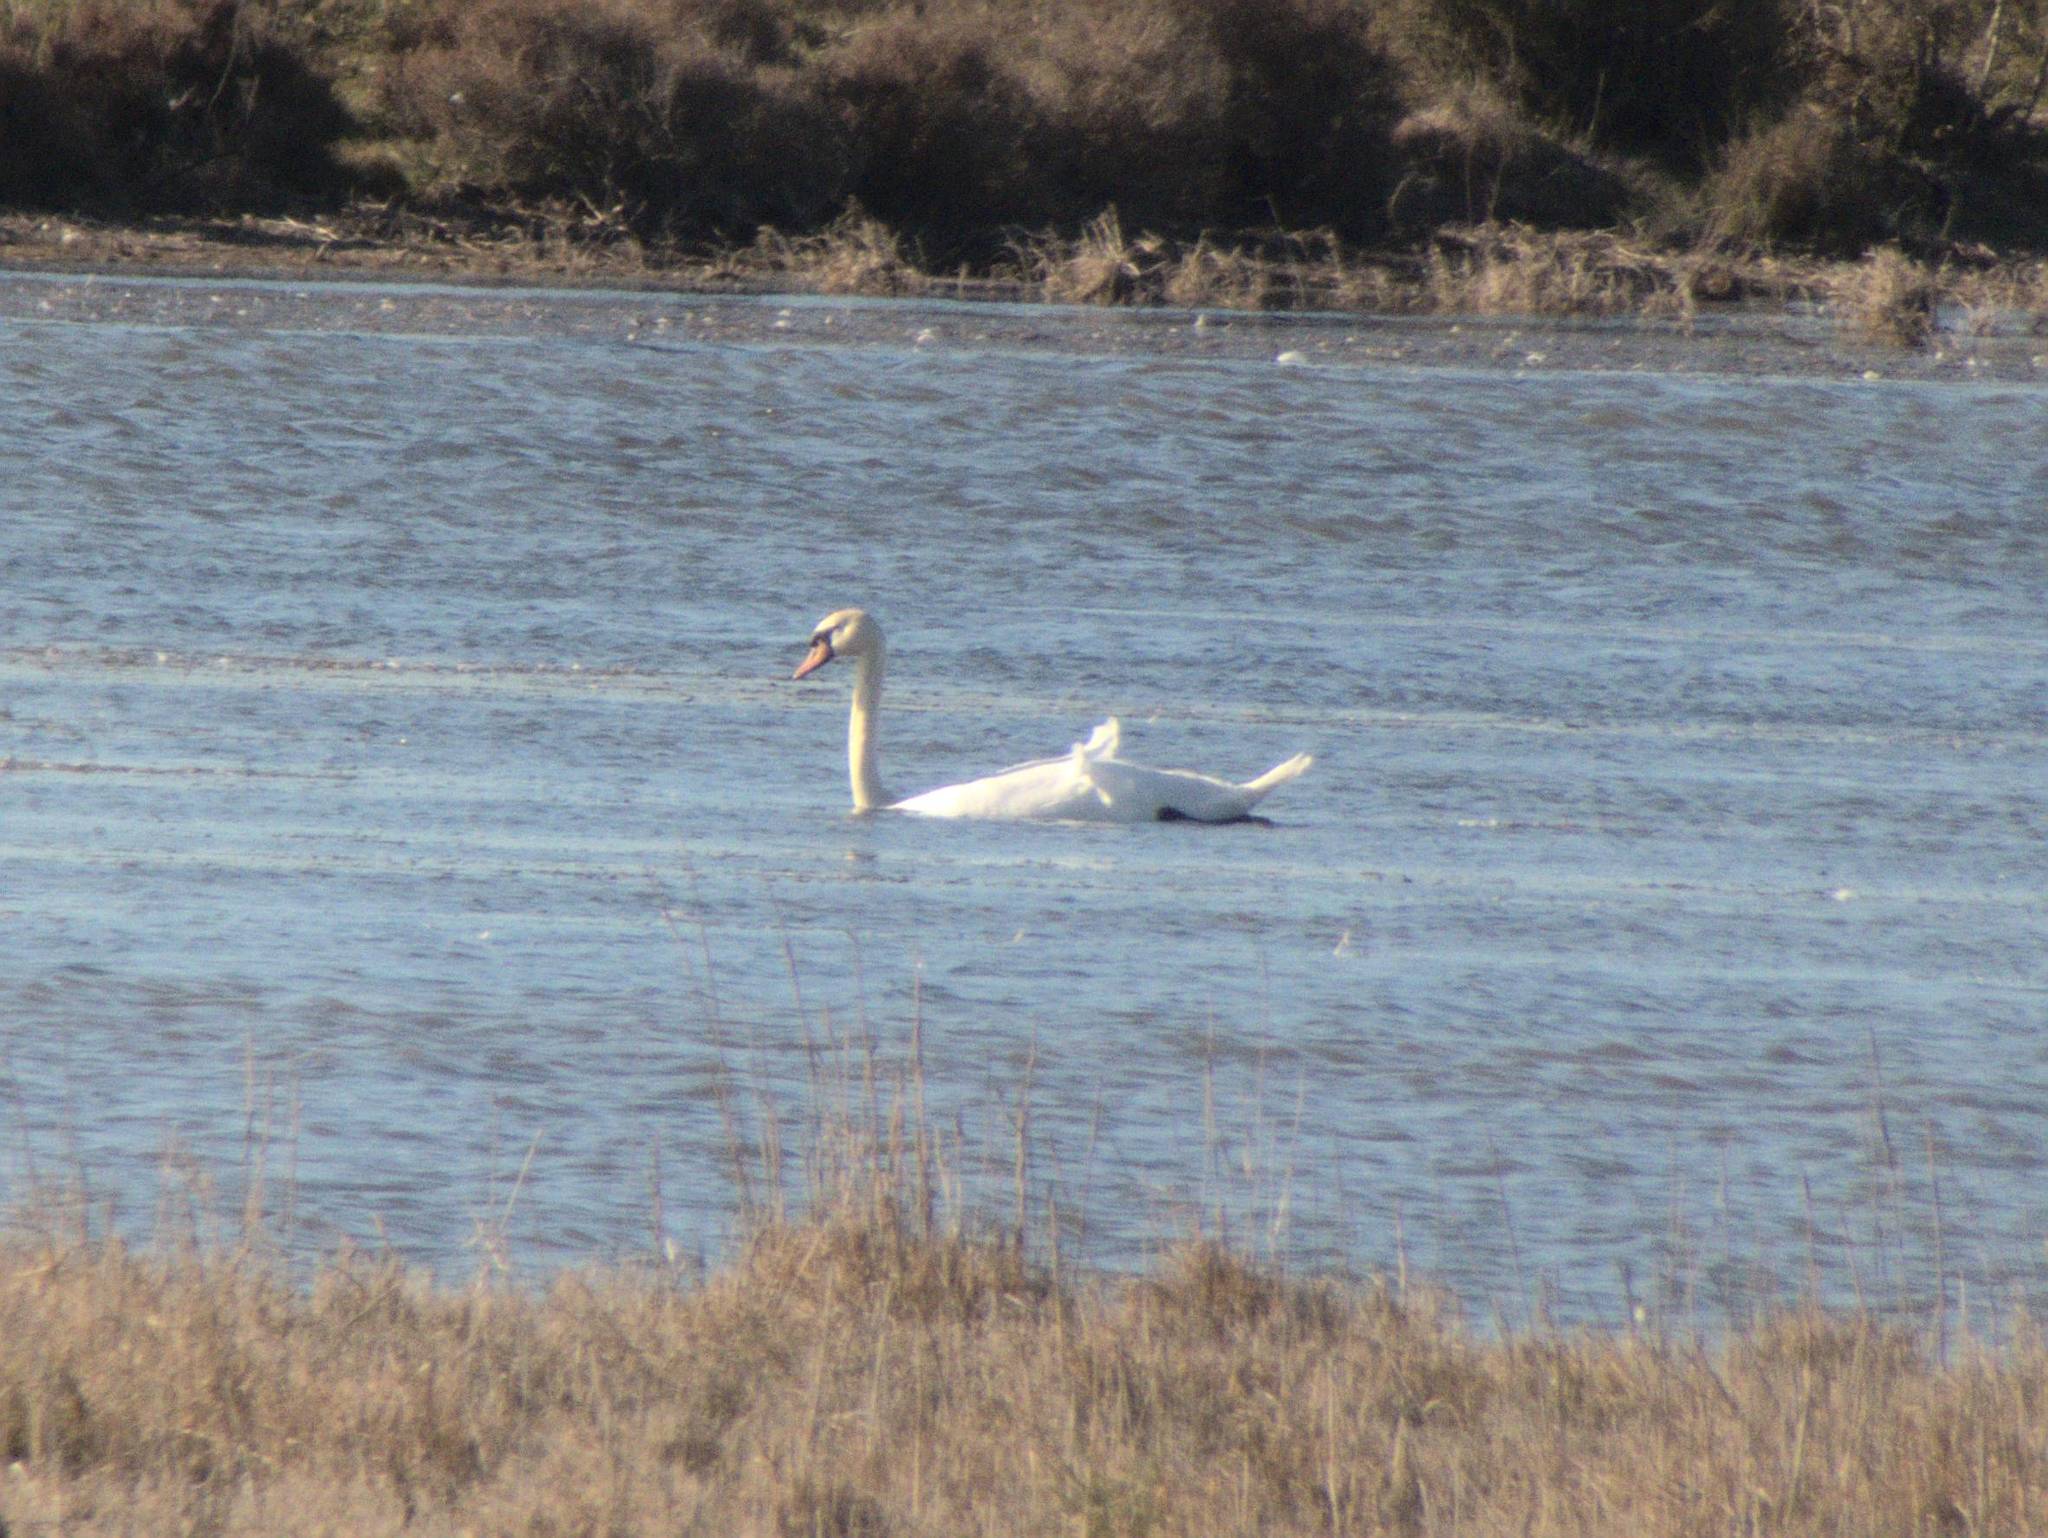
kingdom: Animalia
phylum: Chordata
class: Aves
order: Anseriformes
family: Anatidae
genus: Cygnus
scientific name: Cygnus olor
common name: Mute swan
